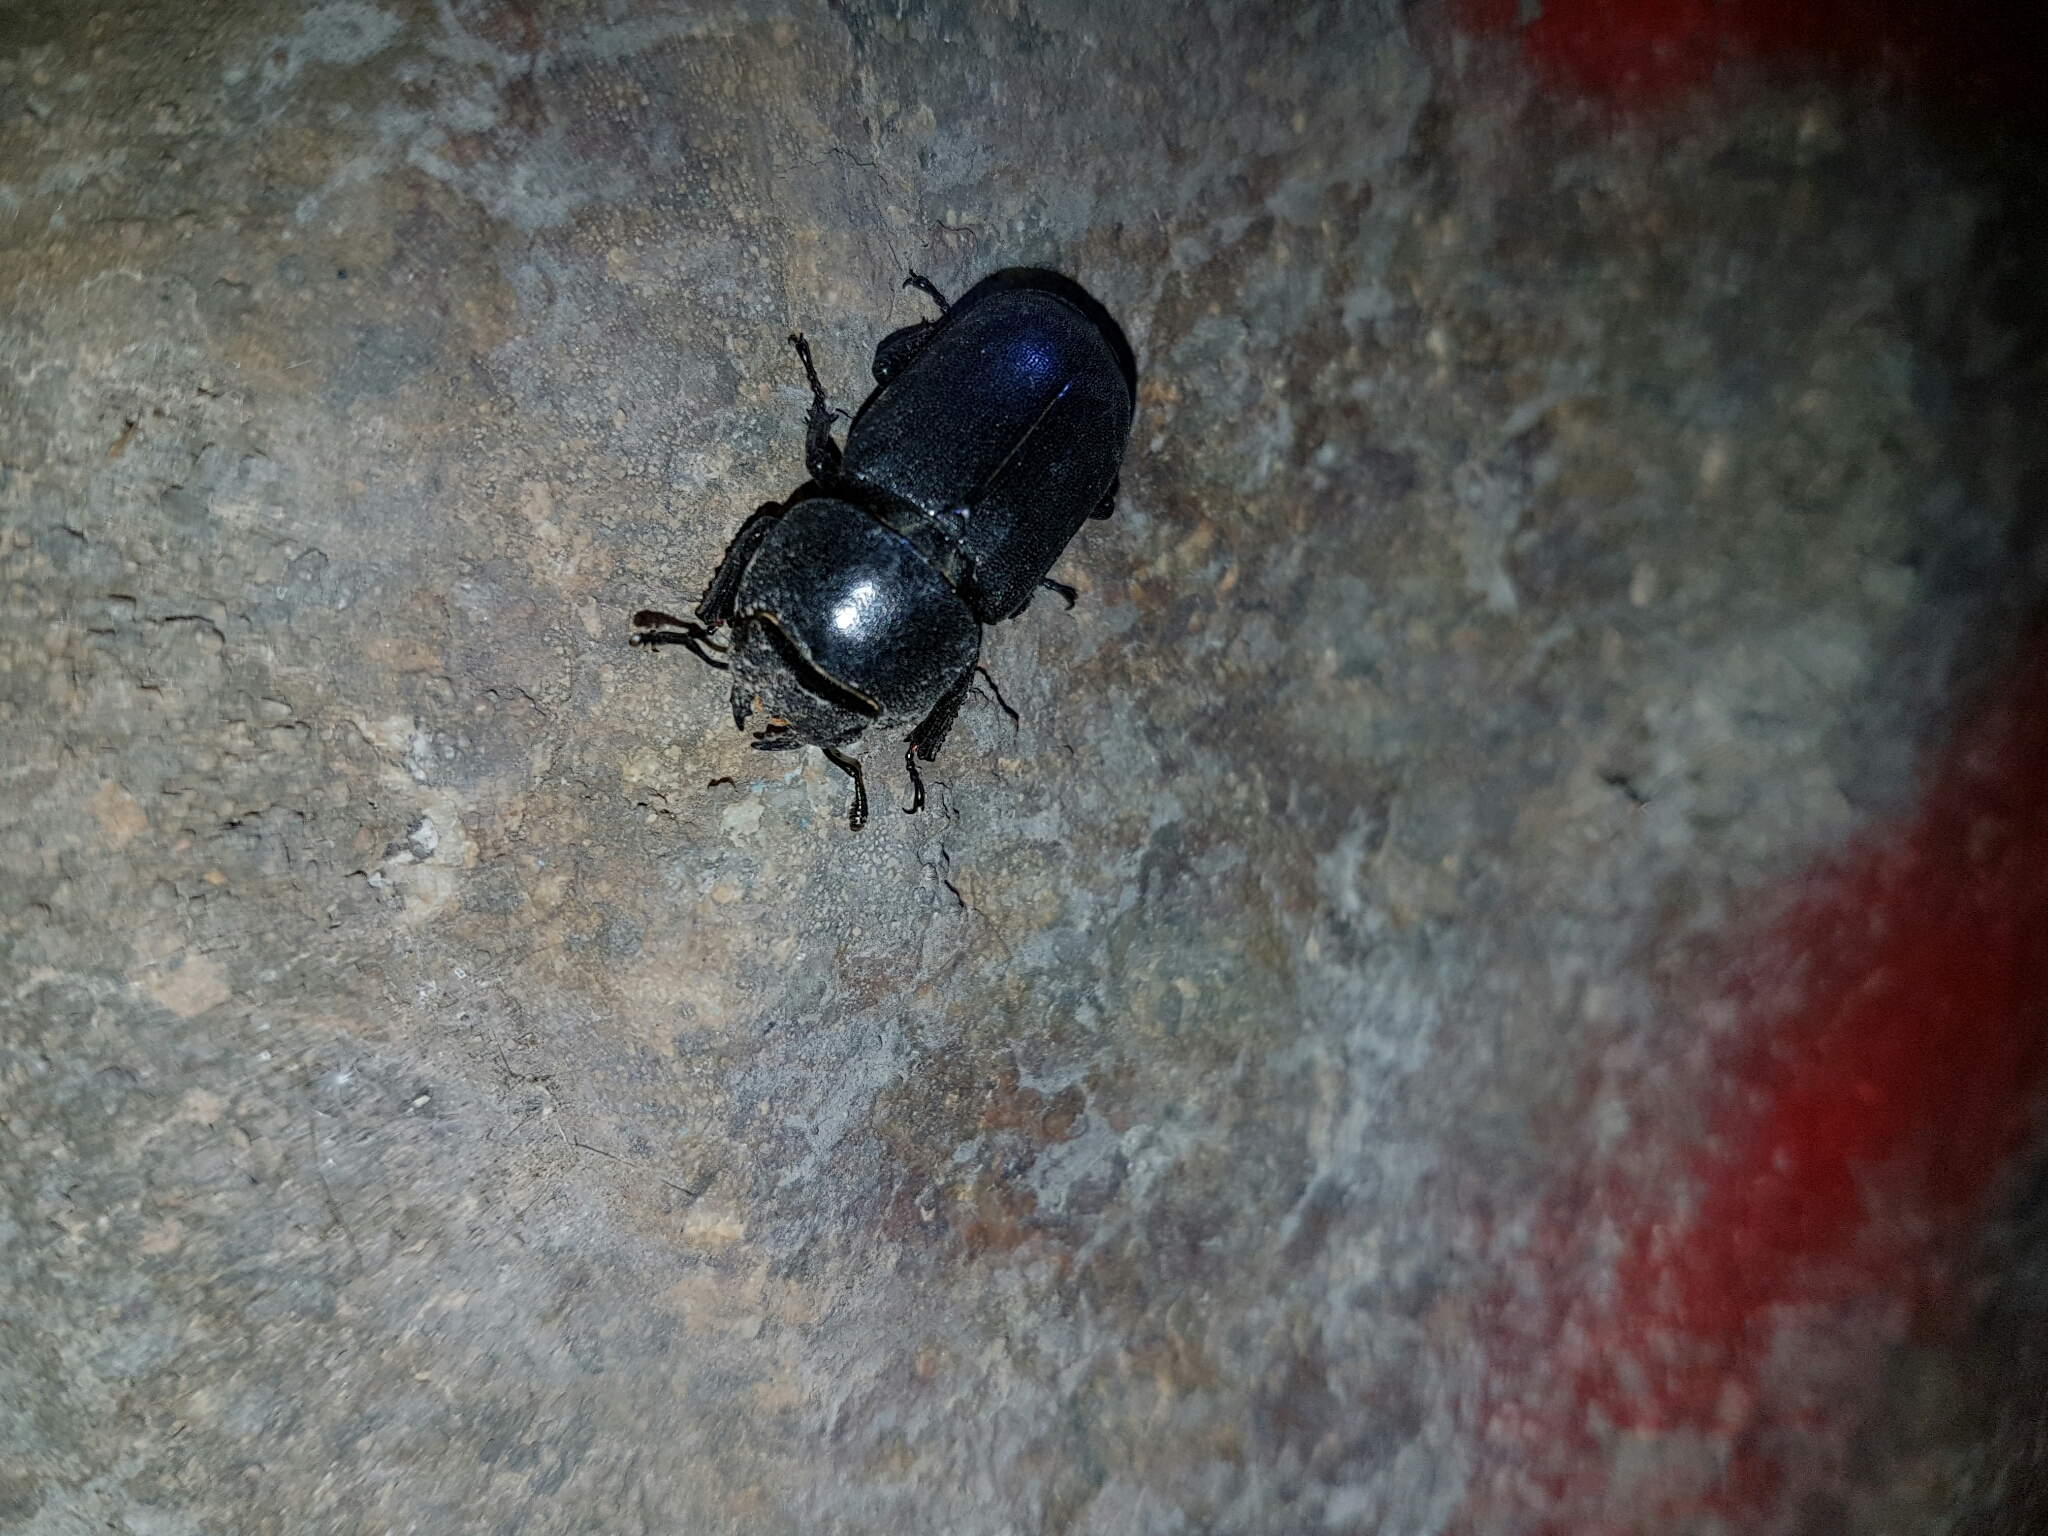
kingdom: Animalia
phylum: Arthropoda
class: Insecta
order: Coleoptera
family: Lucanidae
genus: Dorcus
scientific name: Dorcus parallelipipedus
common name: Lesser stag beetle
